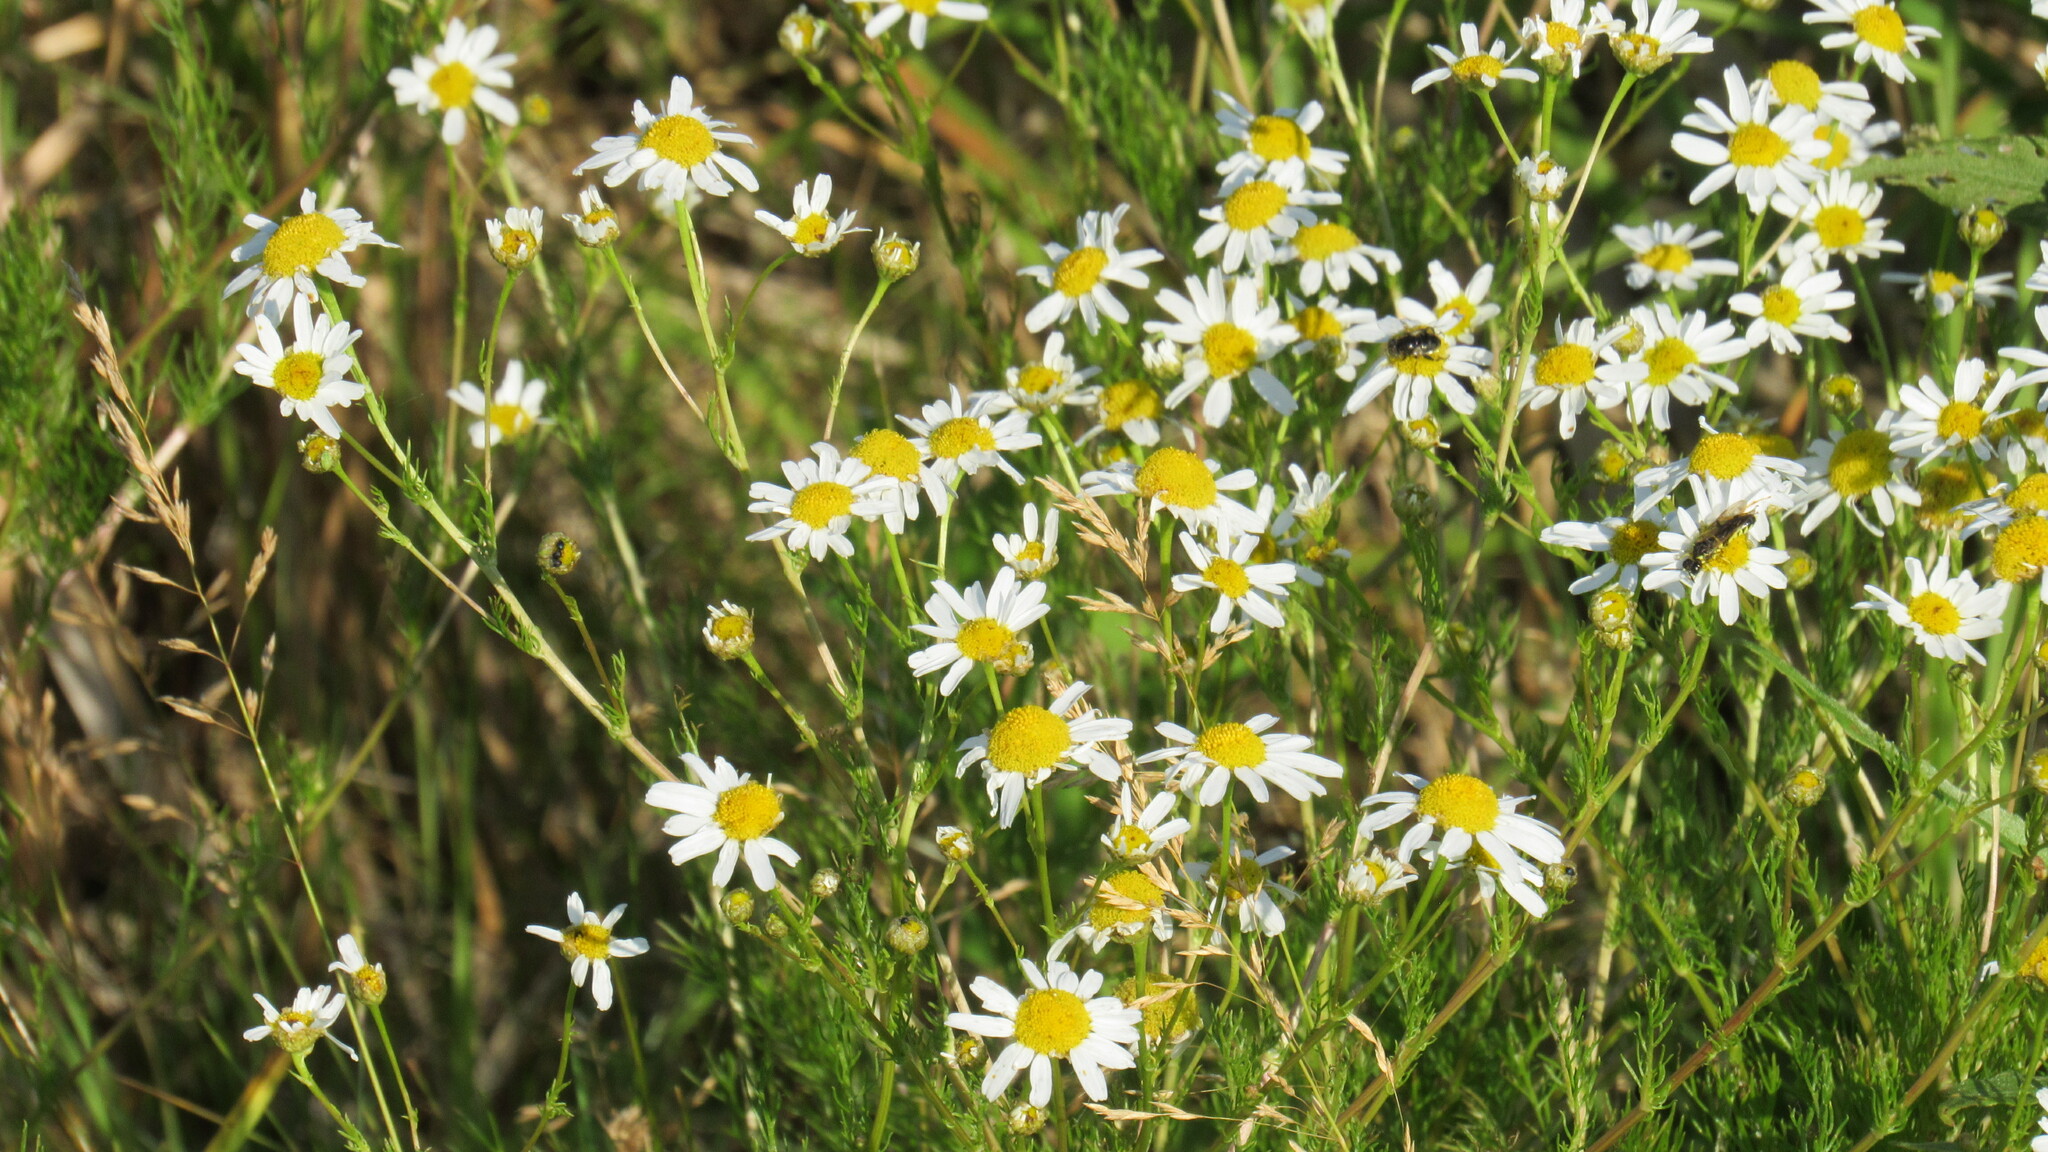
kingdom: Plantae
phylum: Tracheophyta
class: Magnoliopsida
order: Asterales
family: Asteraceae
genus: Tripleurospermum
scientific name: Tripleurospermum inodorum
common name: Scentless mayweed
